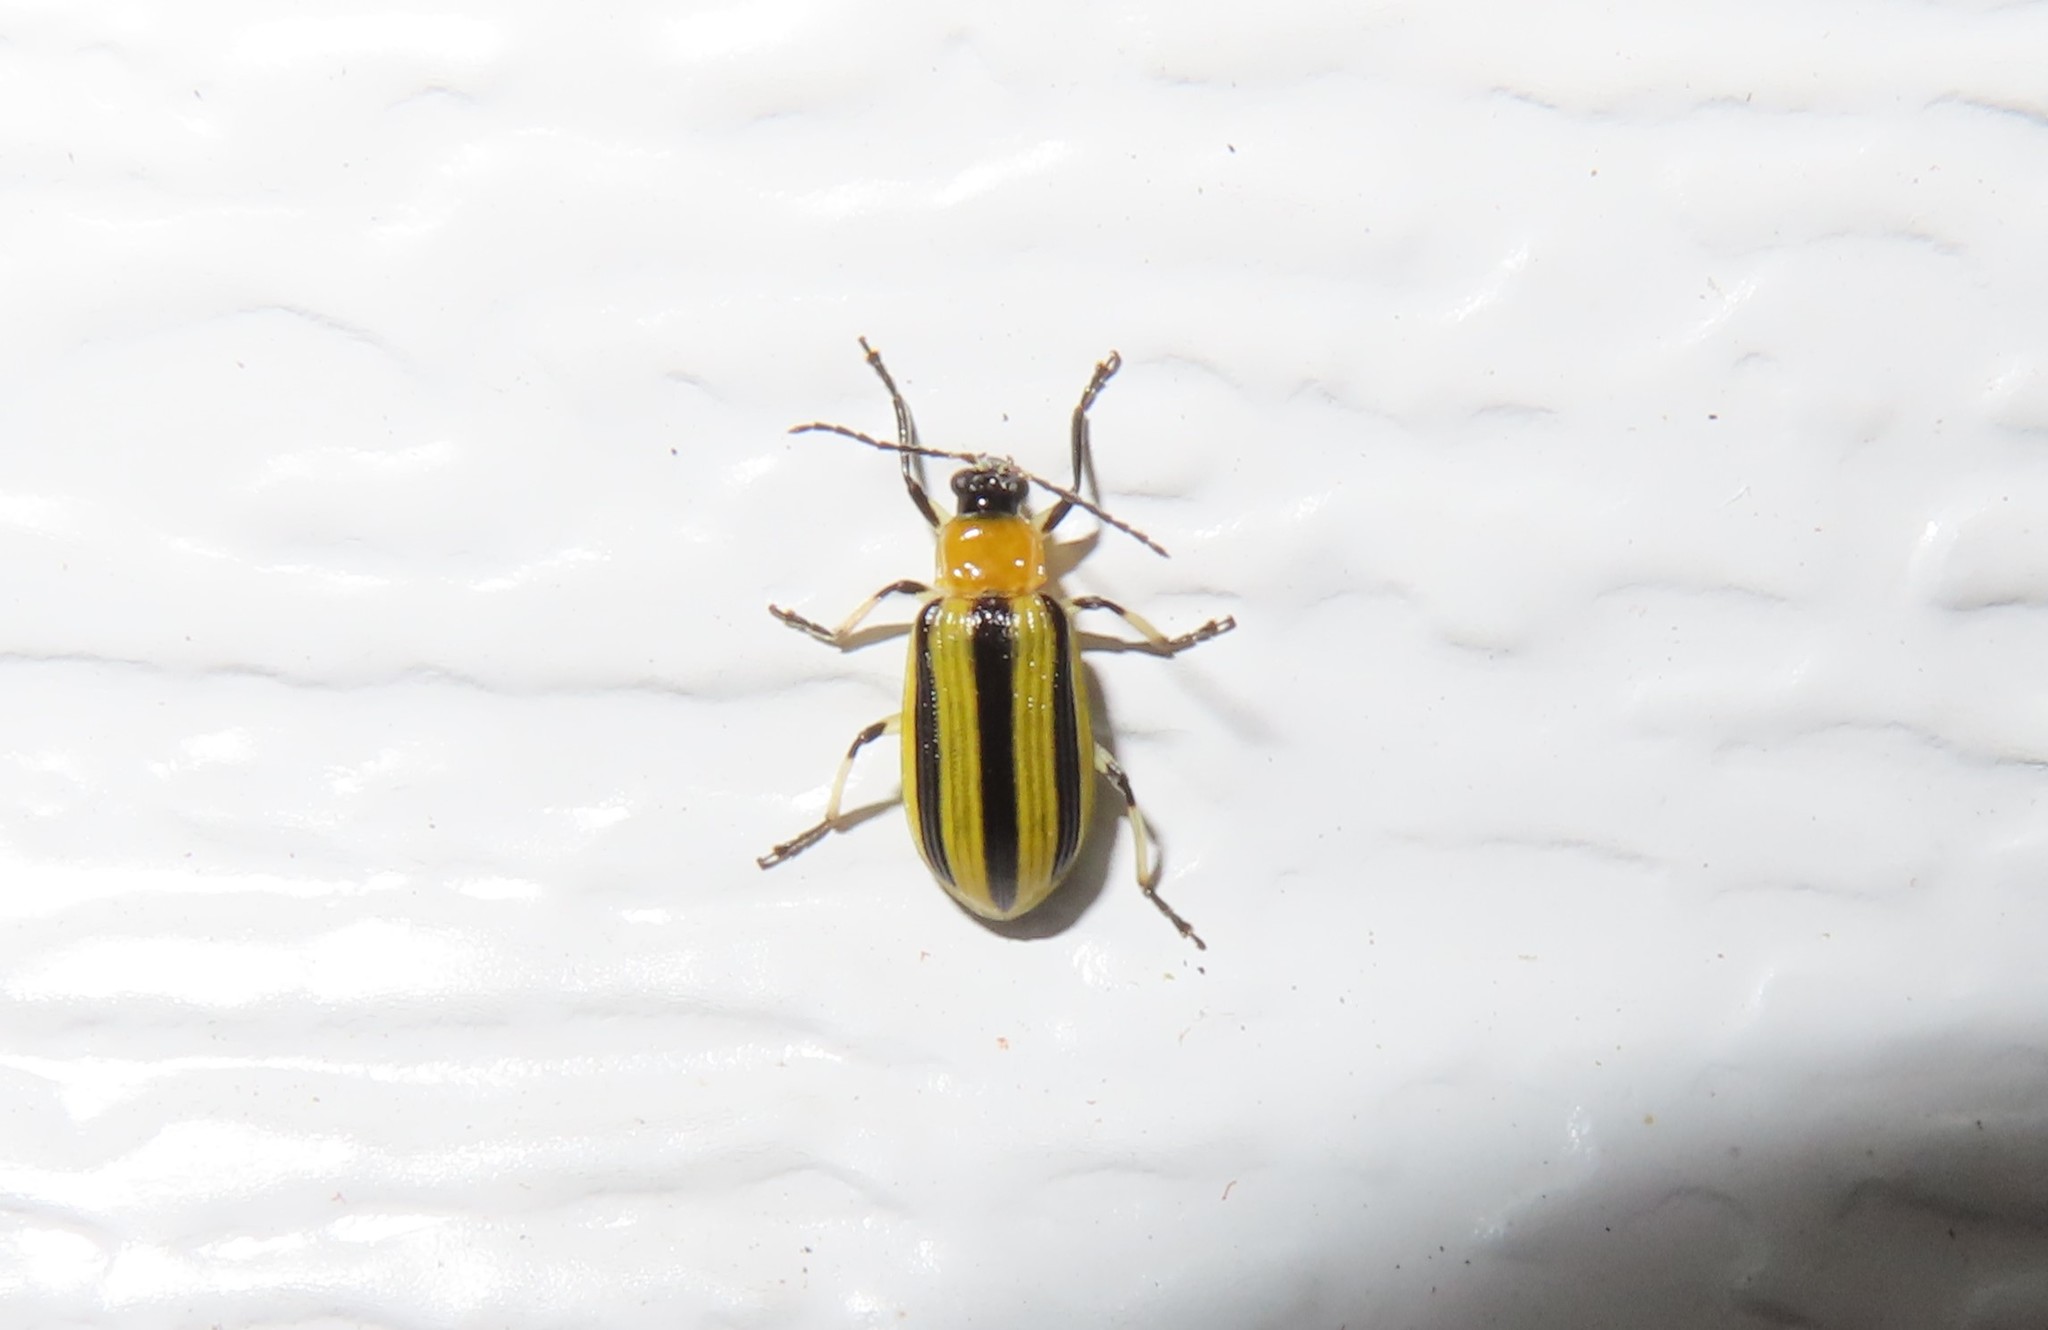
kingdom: Animalia
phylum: Arthropoda
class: Insecta
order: Coleoptera
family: Chrysomelidae
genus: Acalymma
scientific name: Acalymma vittatum
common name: Striped cucumber beetle
